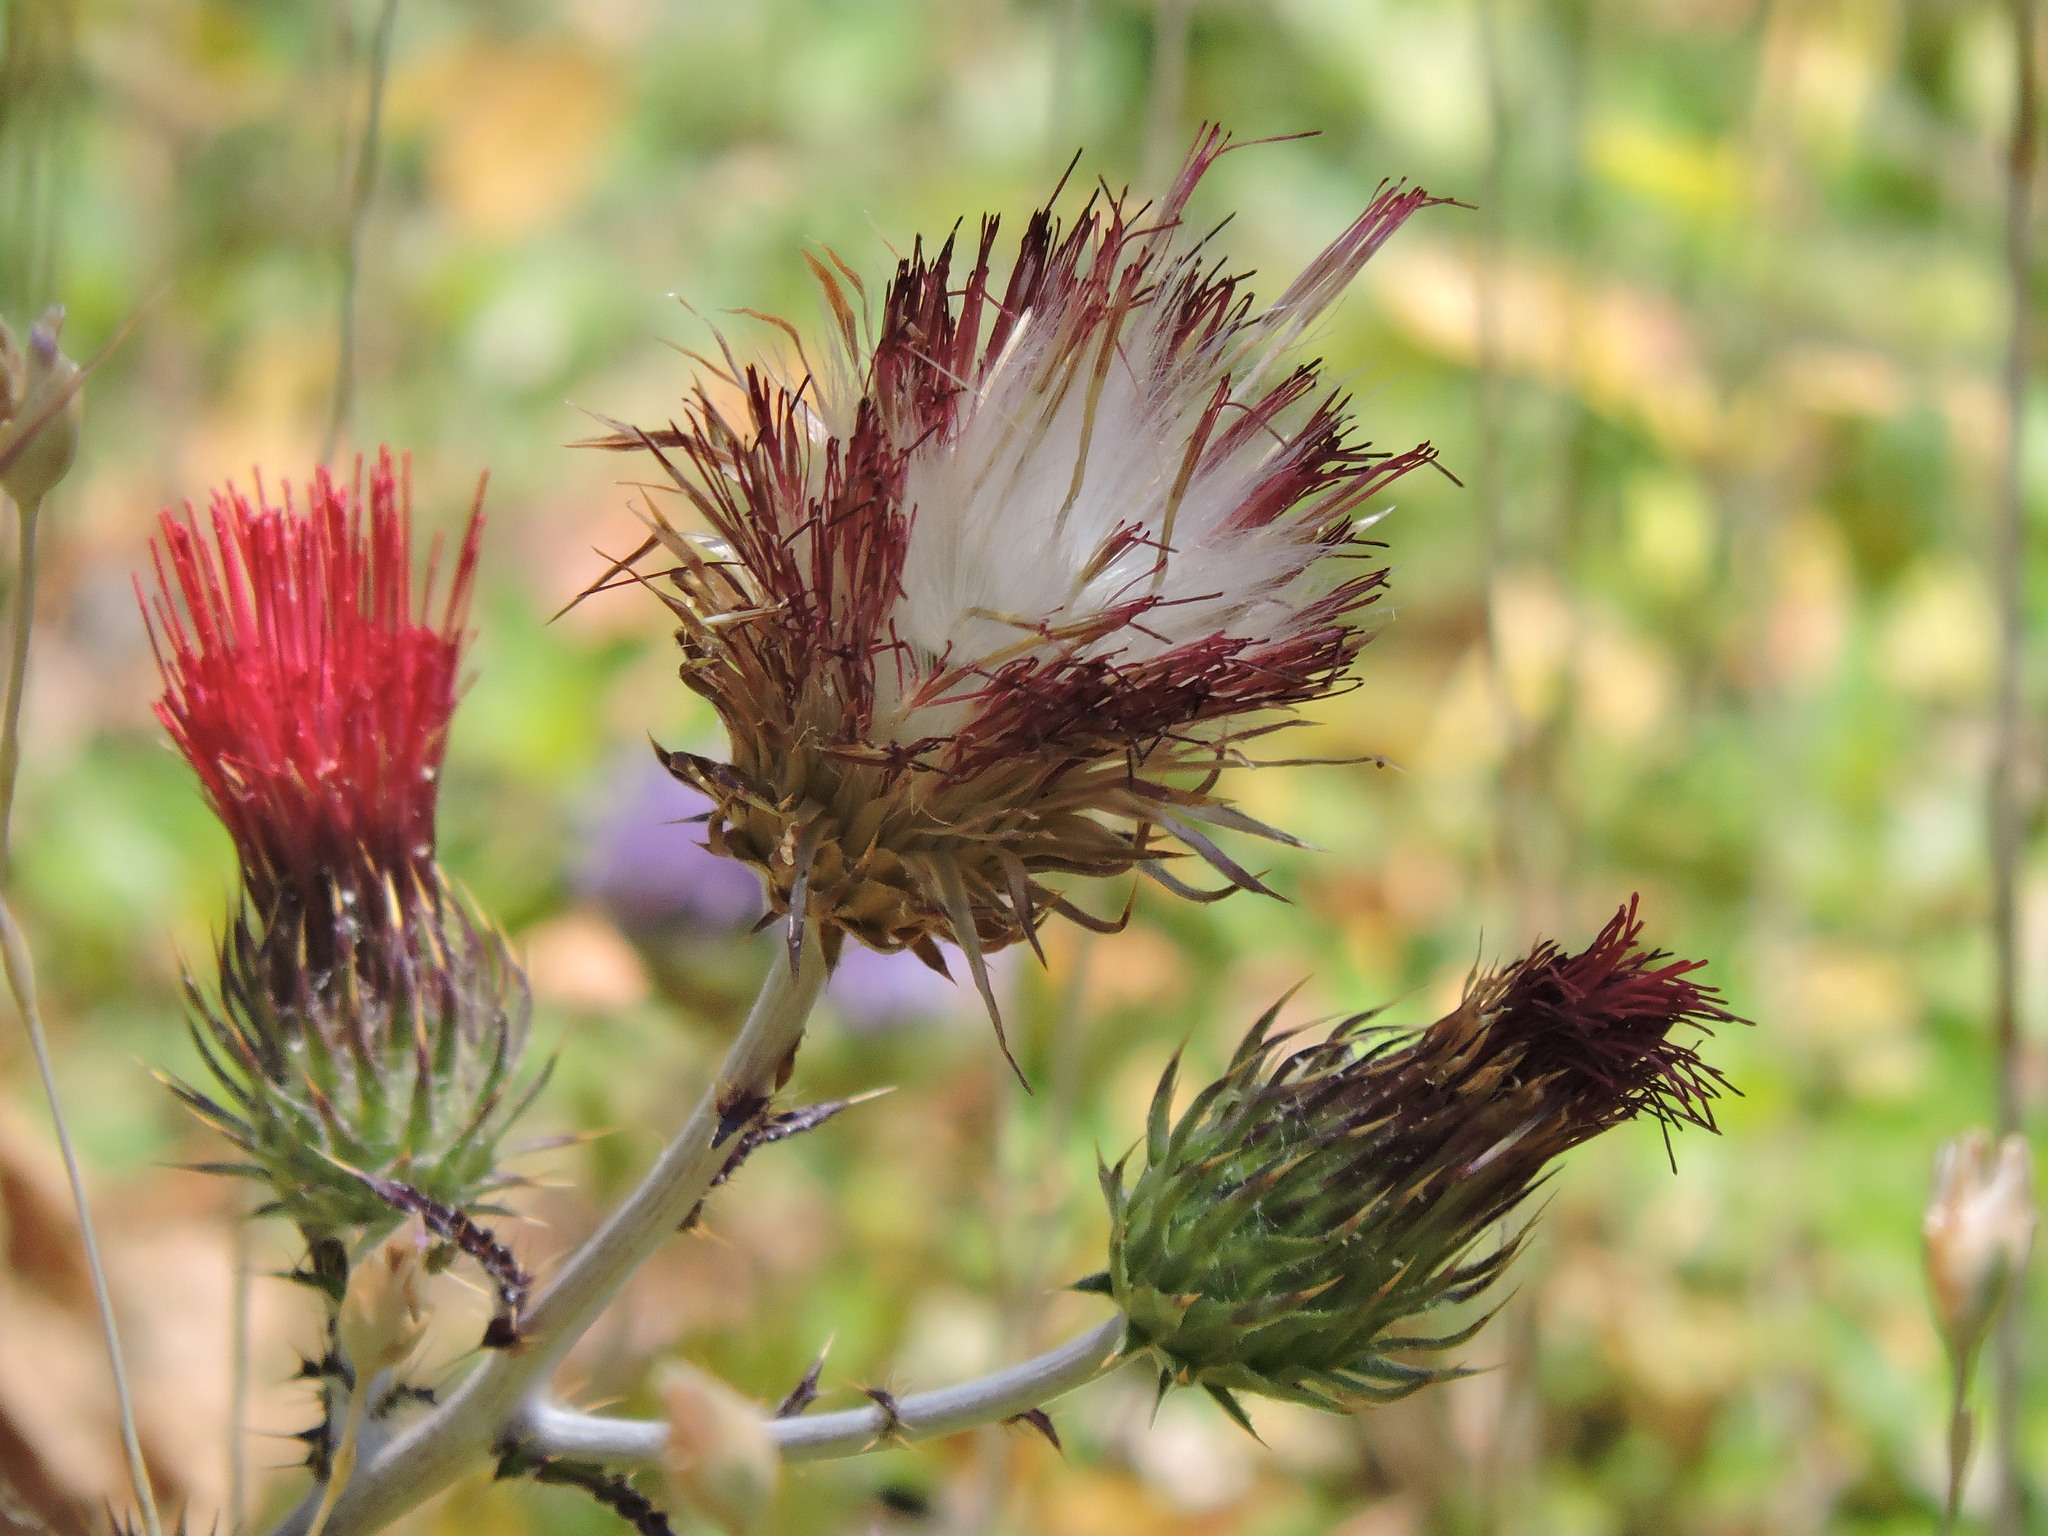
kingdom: Plantae
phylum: Tracheophyta
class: Magnoliopsida
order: Asterales
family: Asteraceae
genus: Cirsium
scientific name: Cirsium occidentale
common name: Western thistle
